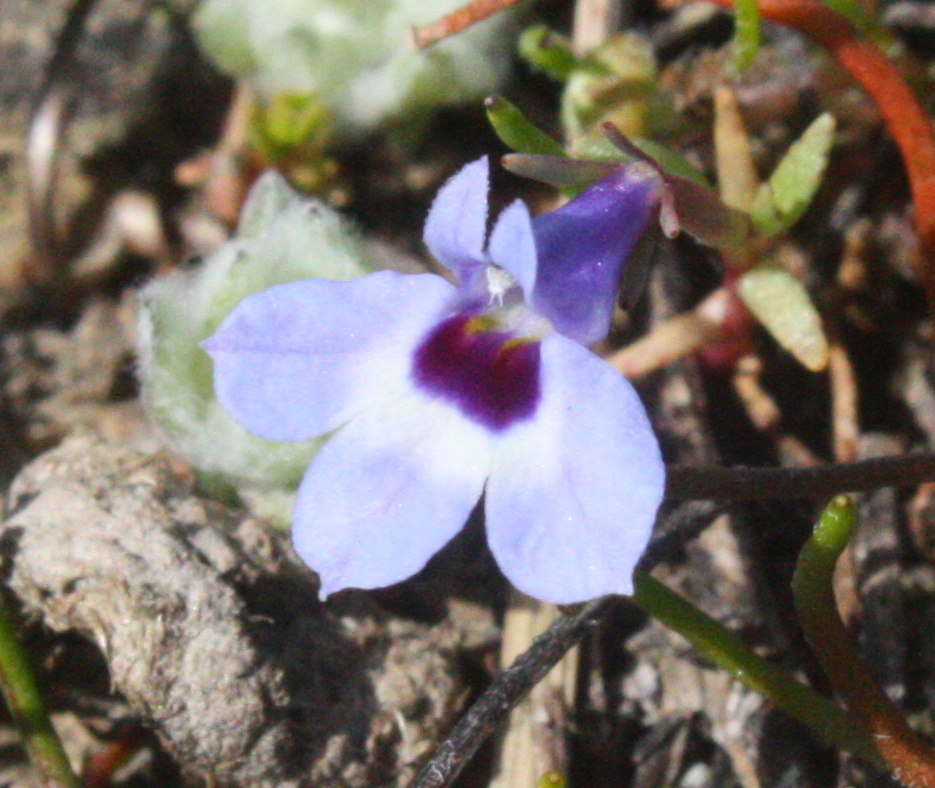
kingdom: Plantae
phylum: Tracheophyta
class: Magnoliopsida
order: Asterales
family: Campanulaceae
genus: Downingia
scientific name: Downingia concolor
